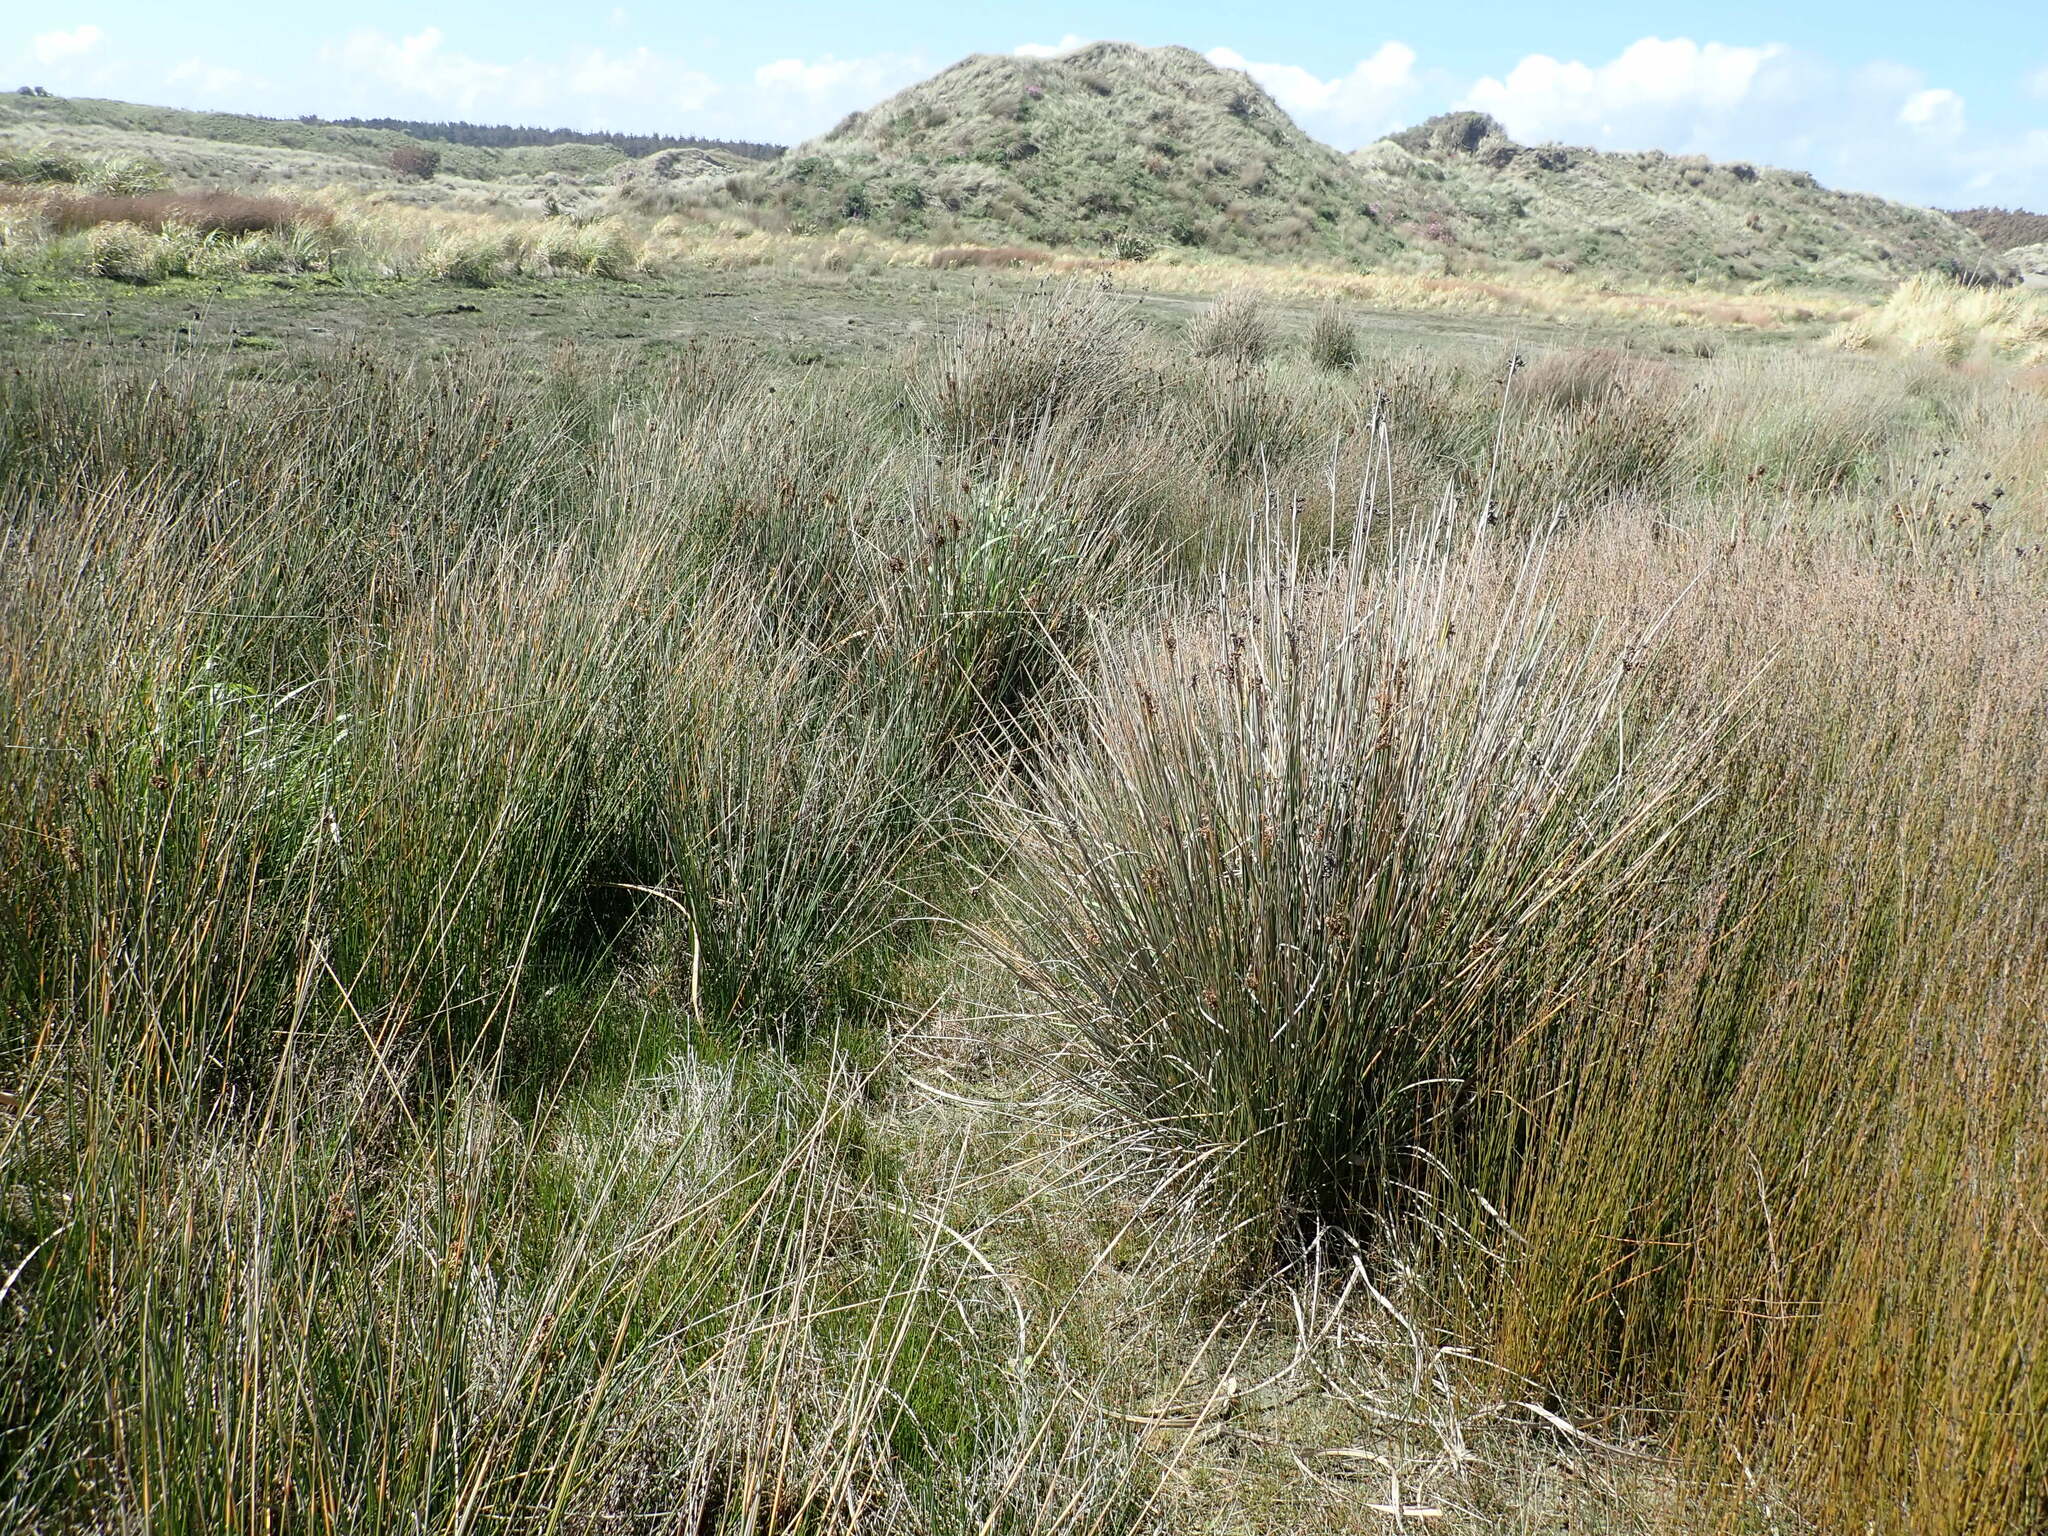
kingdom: Plantae
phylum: Tracheophyta
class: Liliopsida
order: Poales
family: Juncaceae
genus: Juncus
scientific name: Juncus acutus
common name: Sharp rush
